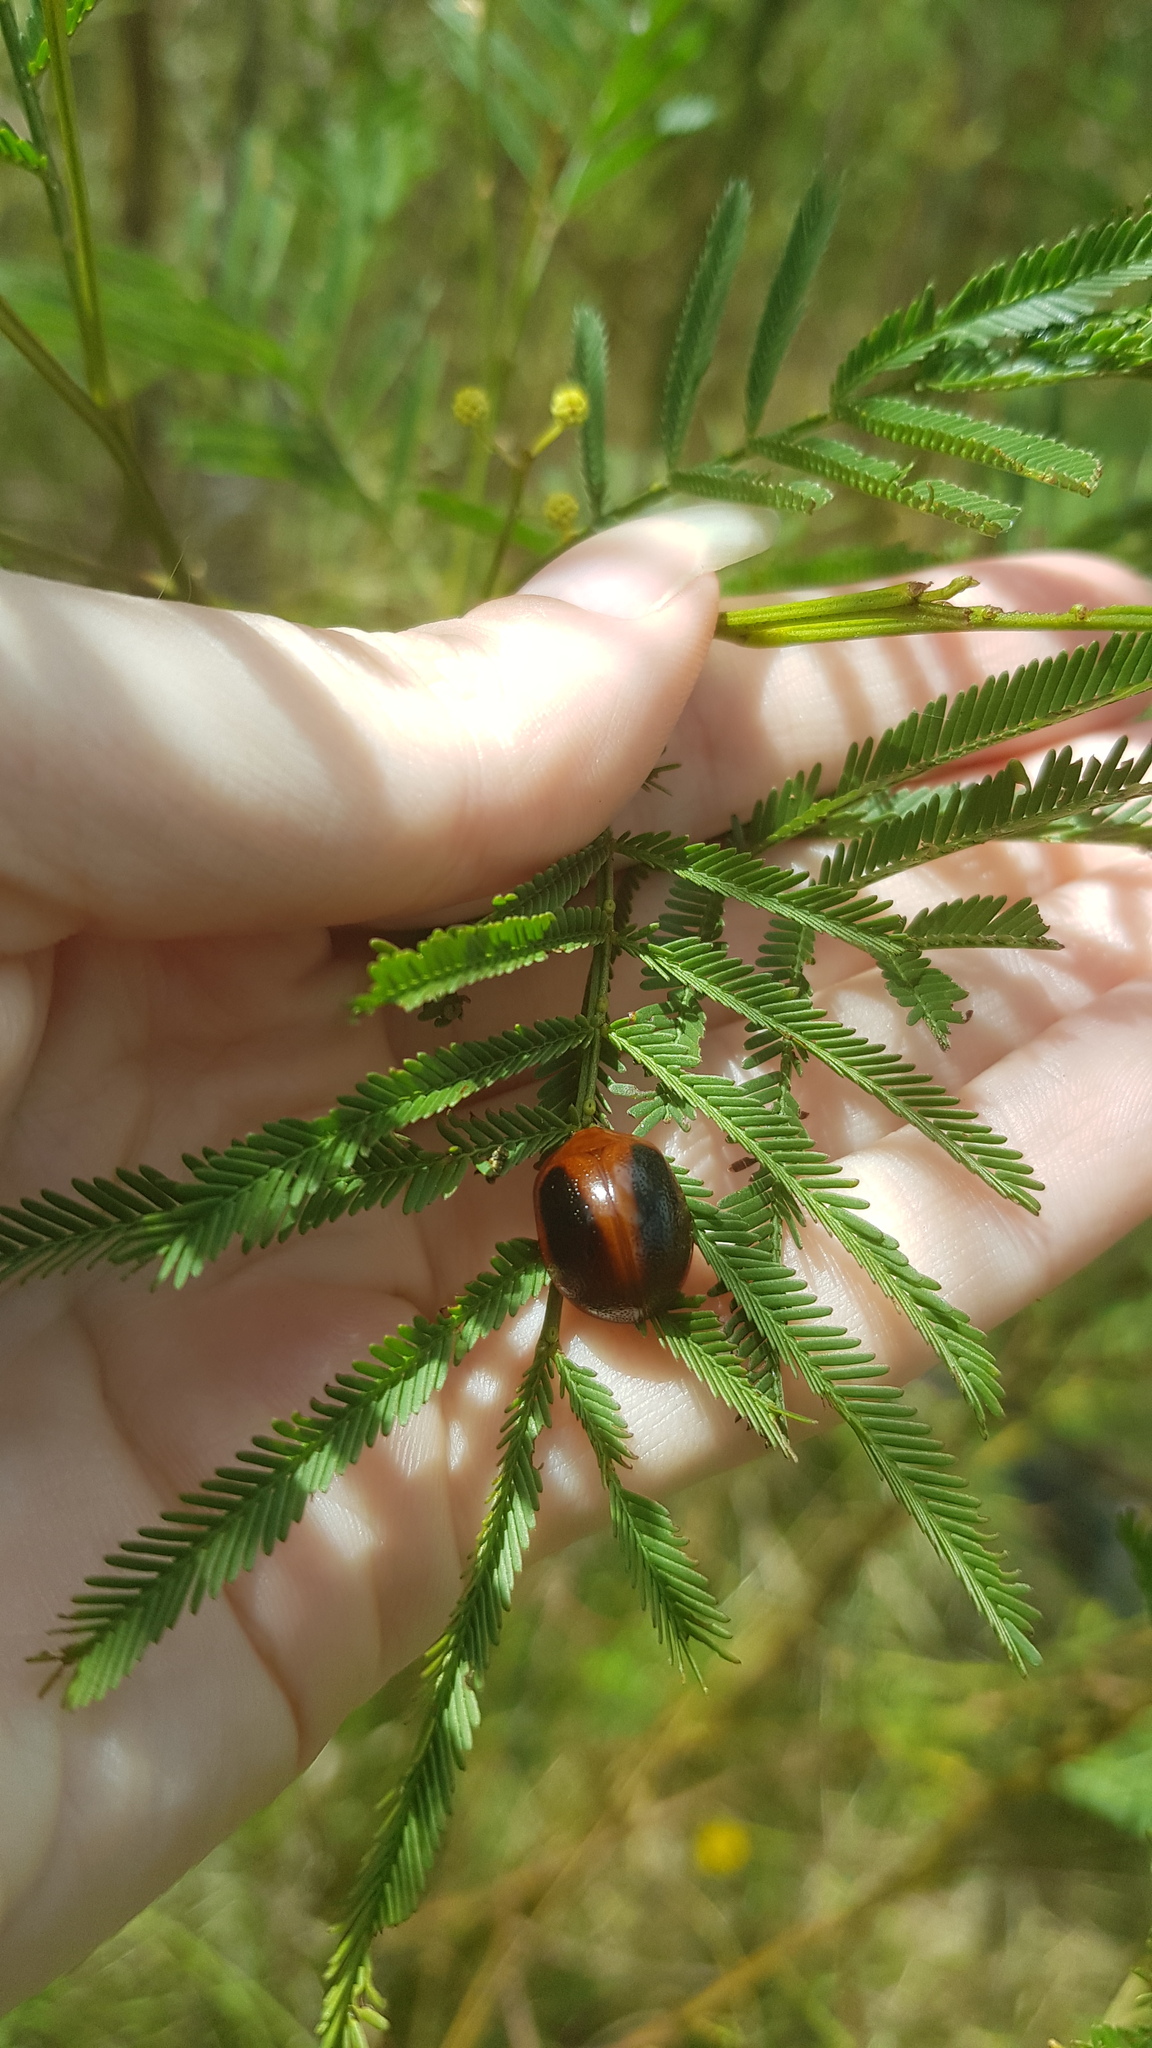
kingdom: Animalia
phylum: Arthropoda
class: Insecta
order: Coleoptera
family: Chrysomelidae
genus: Dicranosterna
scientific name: Dicranosterna
